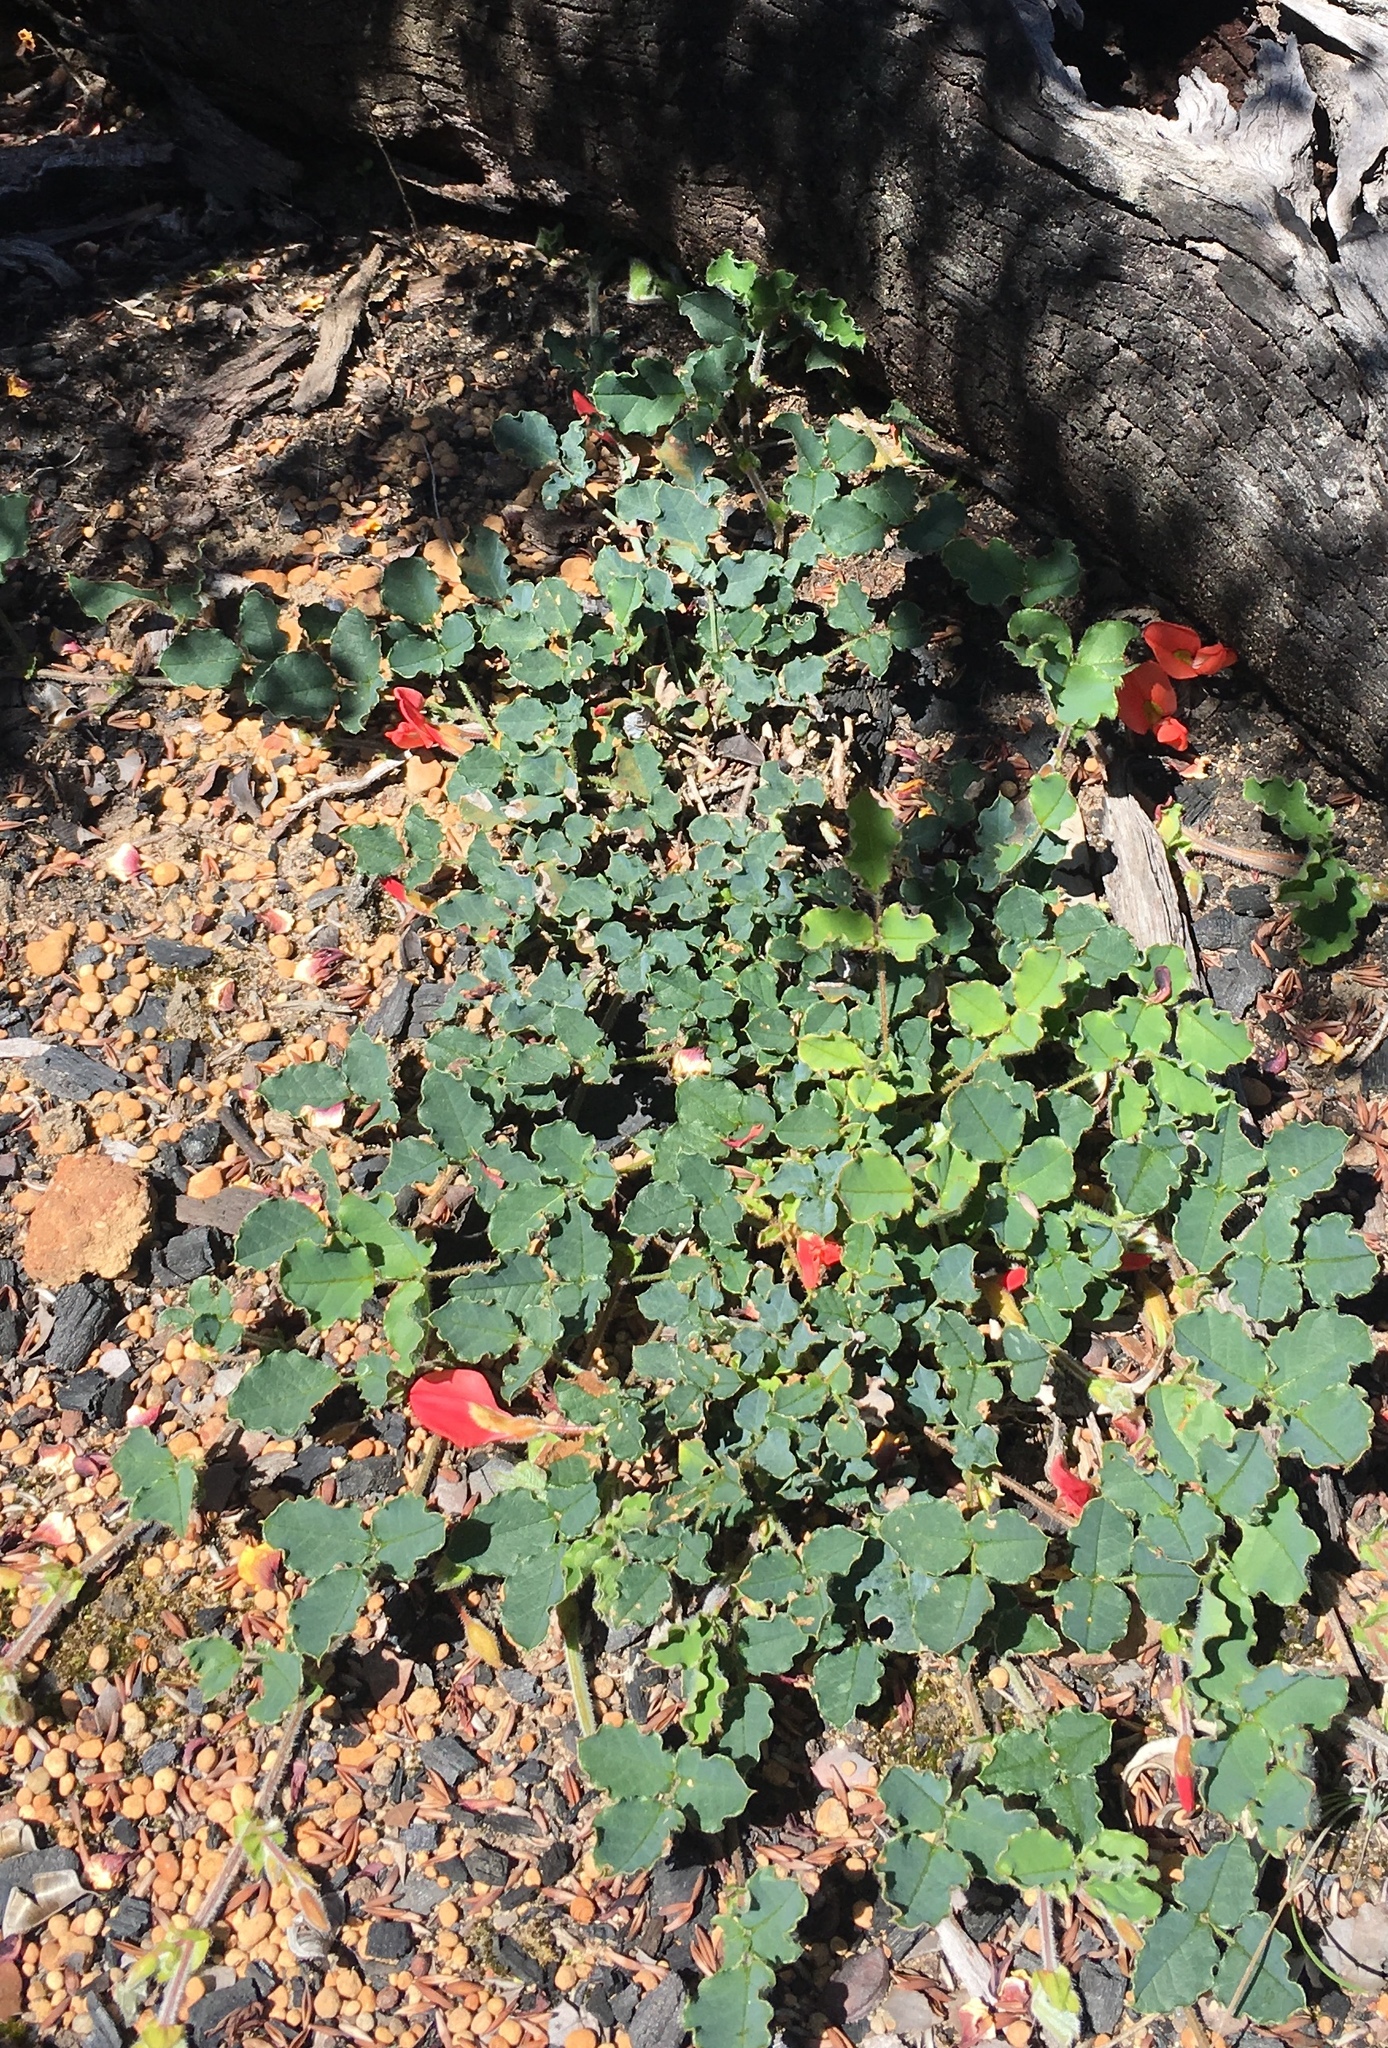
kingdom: Plantae
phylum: Tracheophyta
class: Magnoliopsida
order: Fabales
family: Fabaceae
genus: Kennedia
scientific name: Kennedia prostrata
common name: Running-postman
